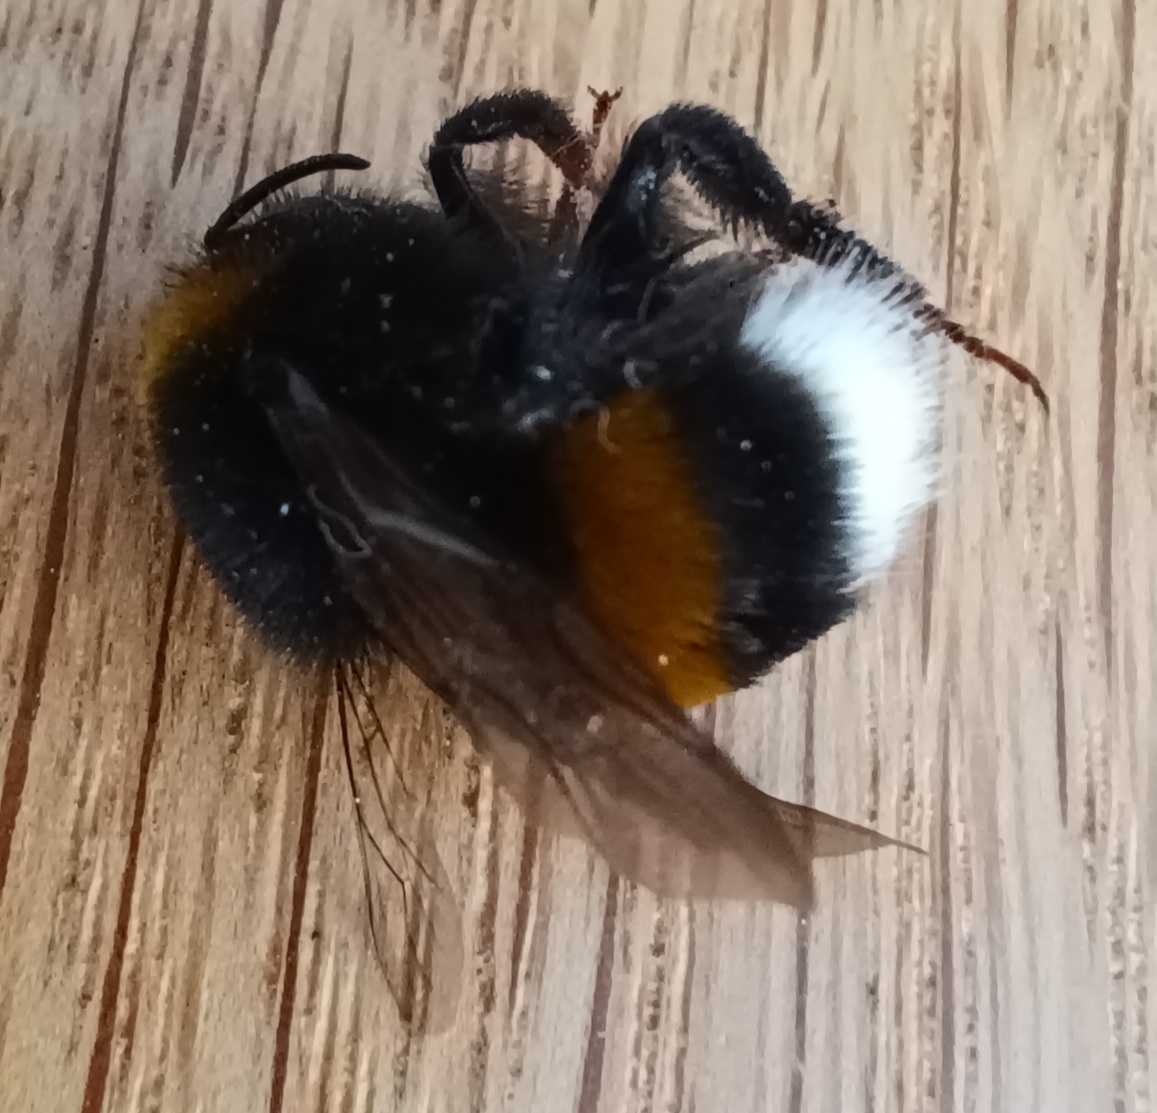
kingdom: Animalia
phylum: Arthropoda
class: Insecta
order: Hymenoptera
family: Apidae
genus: Bombus
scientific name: Bombus terrestris
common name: Buff-tailed bumblebee
